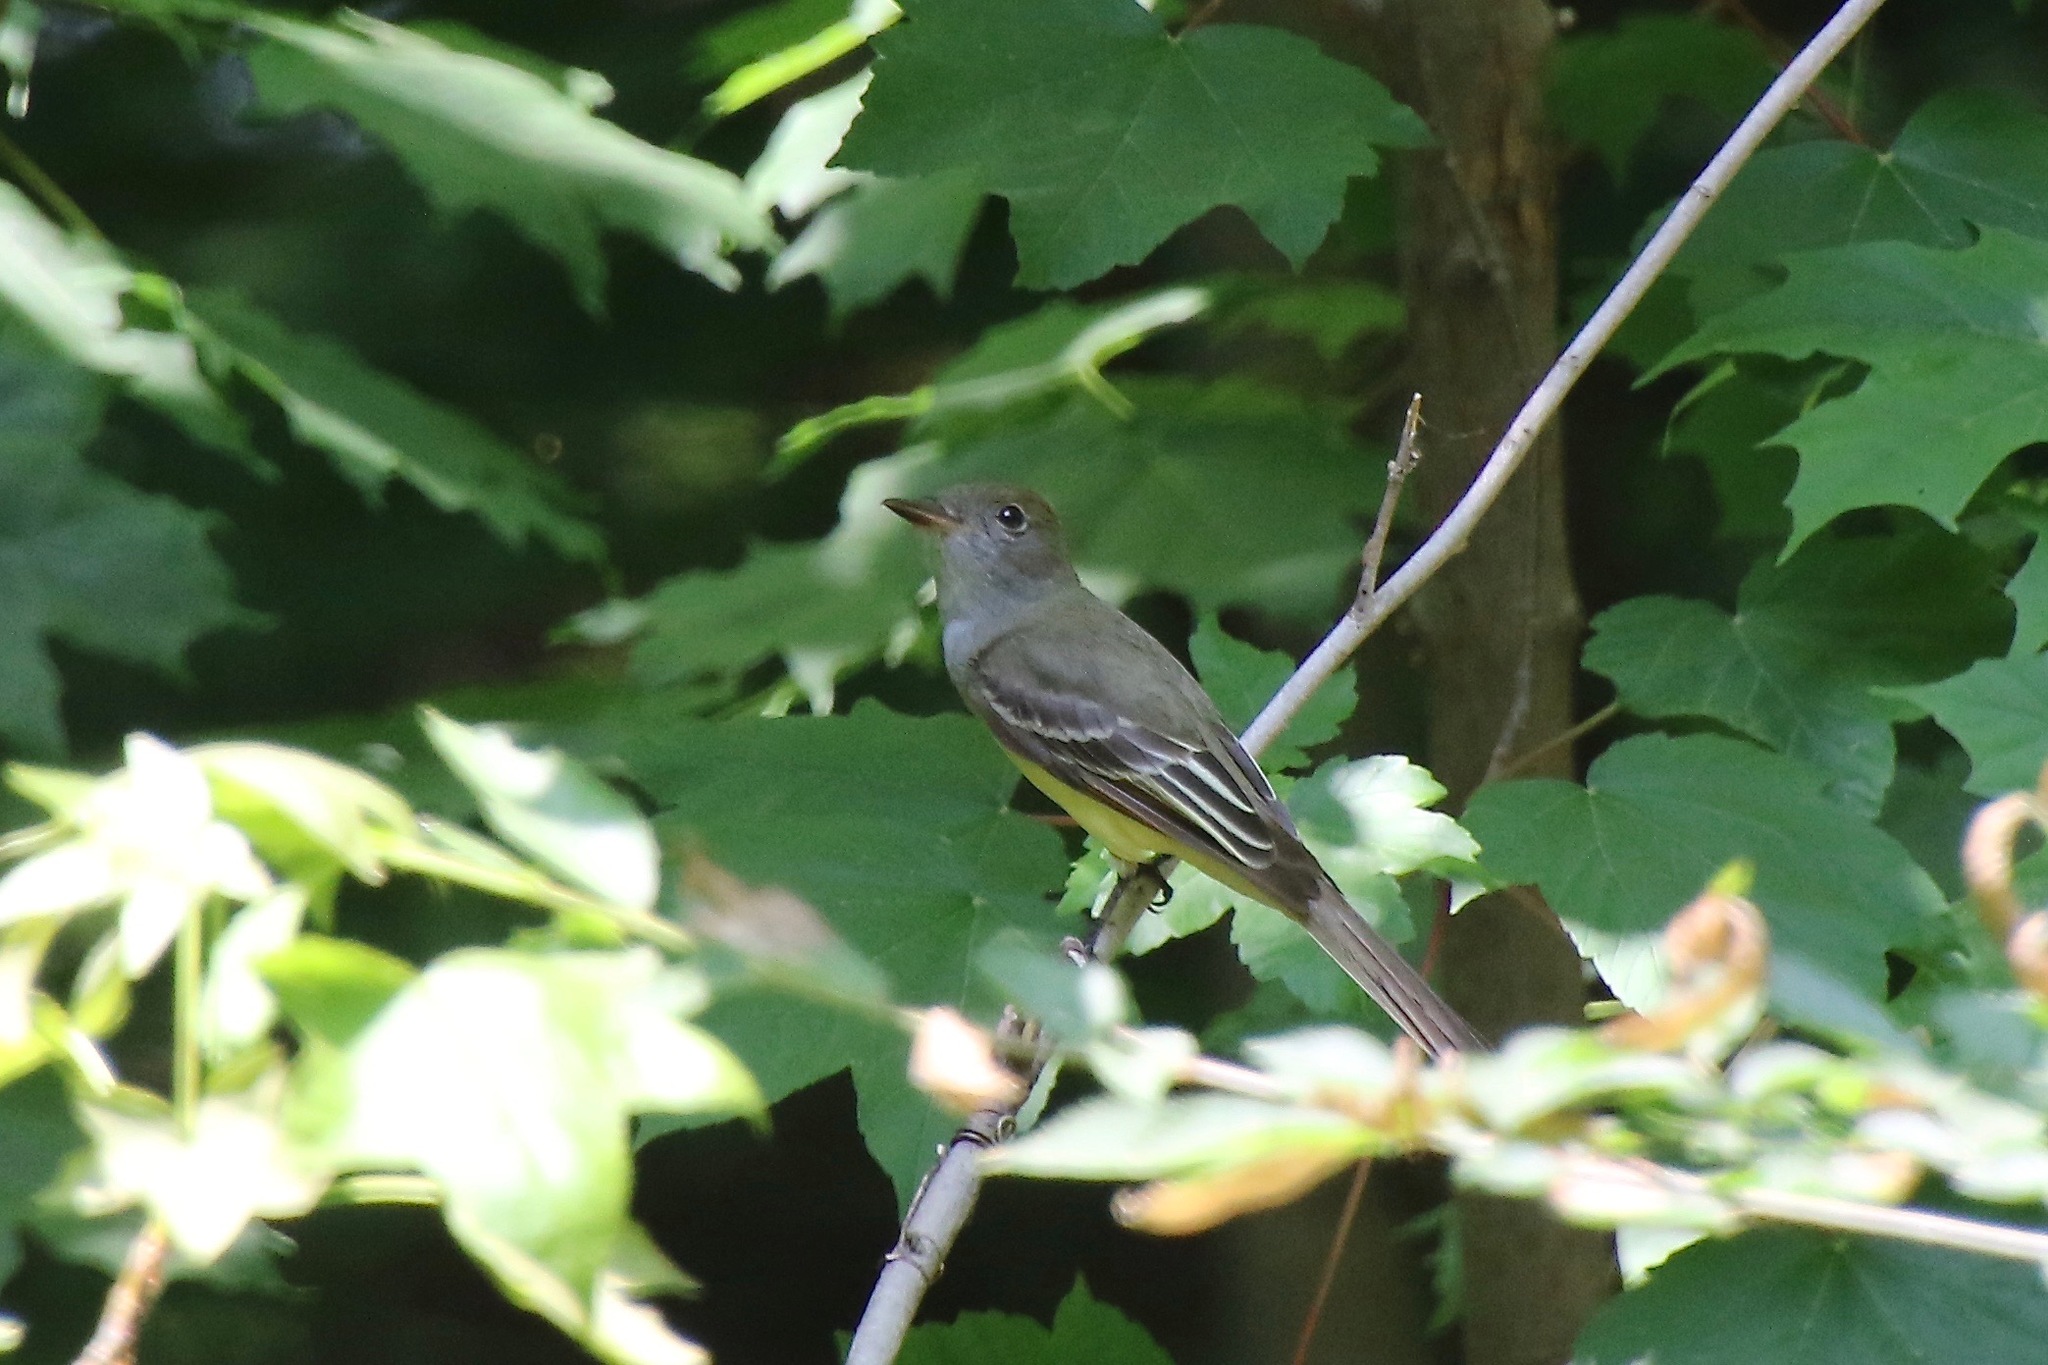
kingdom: Animalia
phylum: Chordata
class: Aves
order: Passeriformes
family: Tyrannidae
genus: Myiarchus
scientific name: Myiarchus crinitus
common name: Great crested flycatcher
